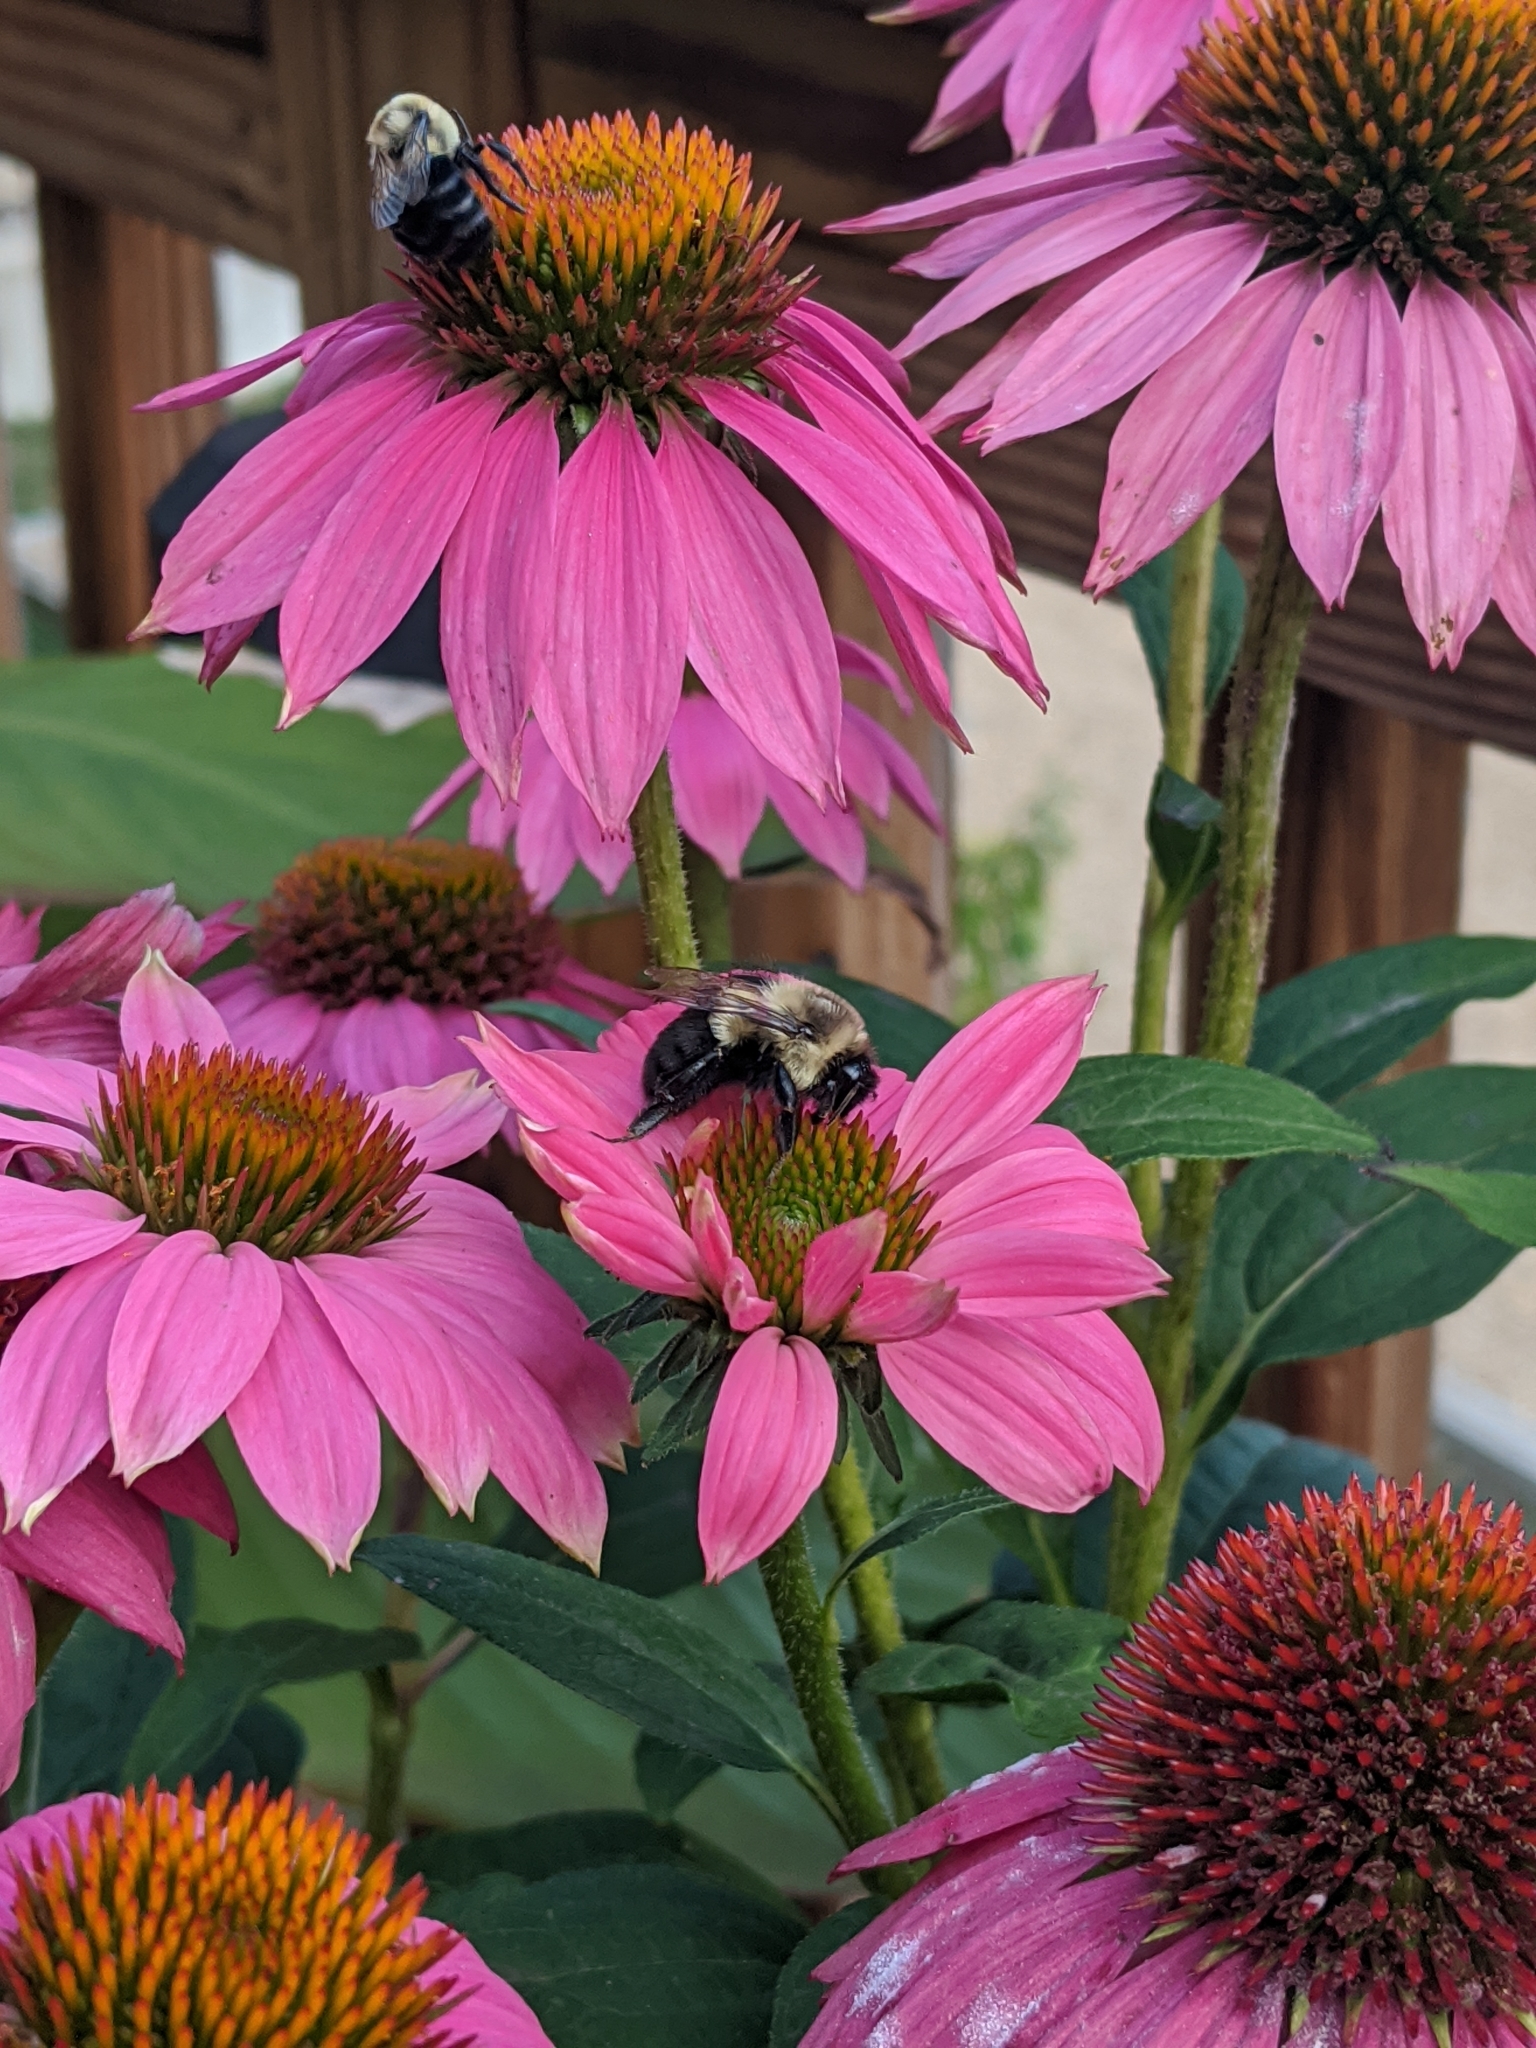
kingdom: Animalia
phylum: Arthropoda
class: Insecta
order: Hymenoptera
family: Apidae
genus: Bombus
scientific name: Bombus impatiens
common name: Common eastern bumble bee
